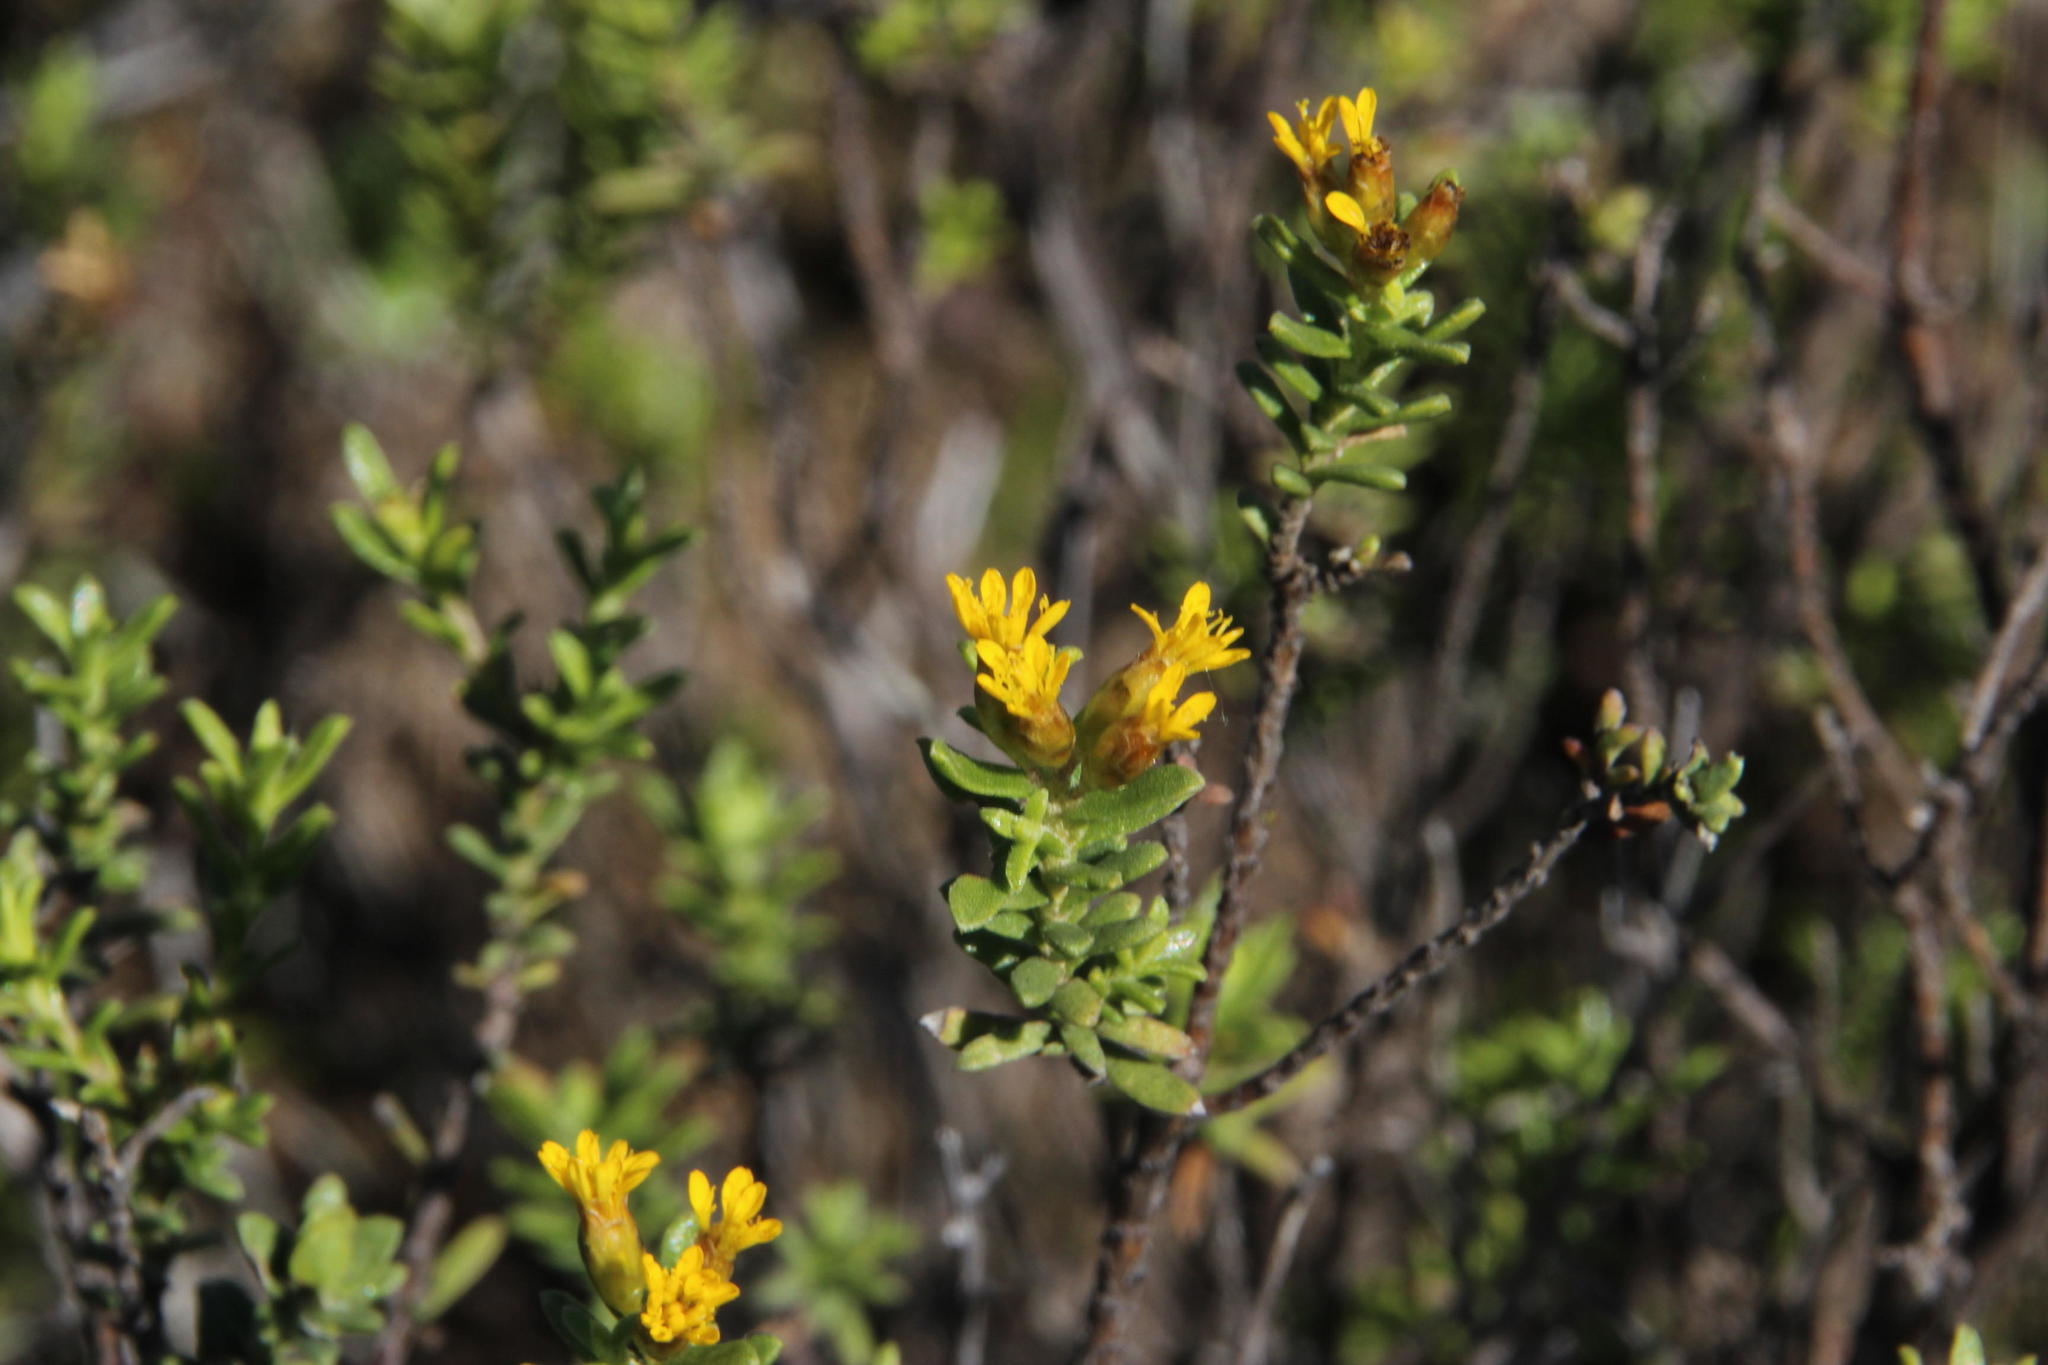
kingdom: Plantae
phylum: Tracheophyta
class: Magnoliopsida
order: Asterales
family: Asteraceae
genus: Oedera
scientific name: Oedera genistifolia
